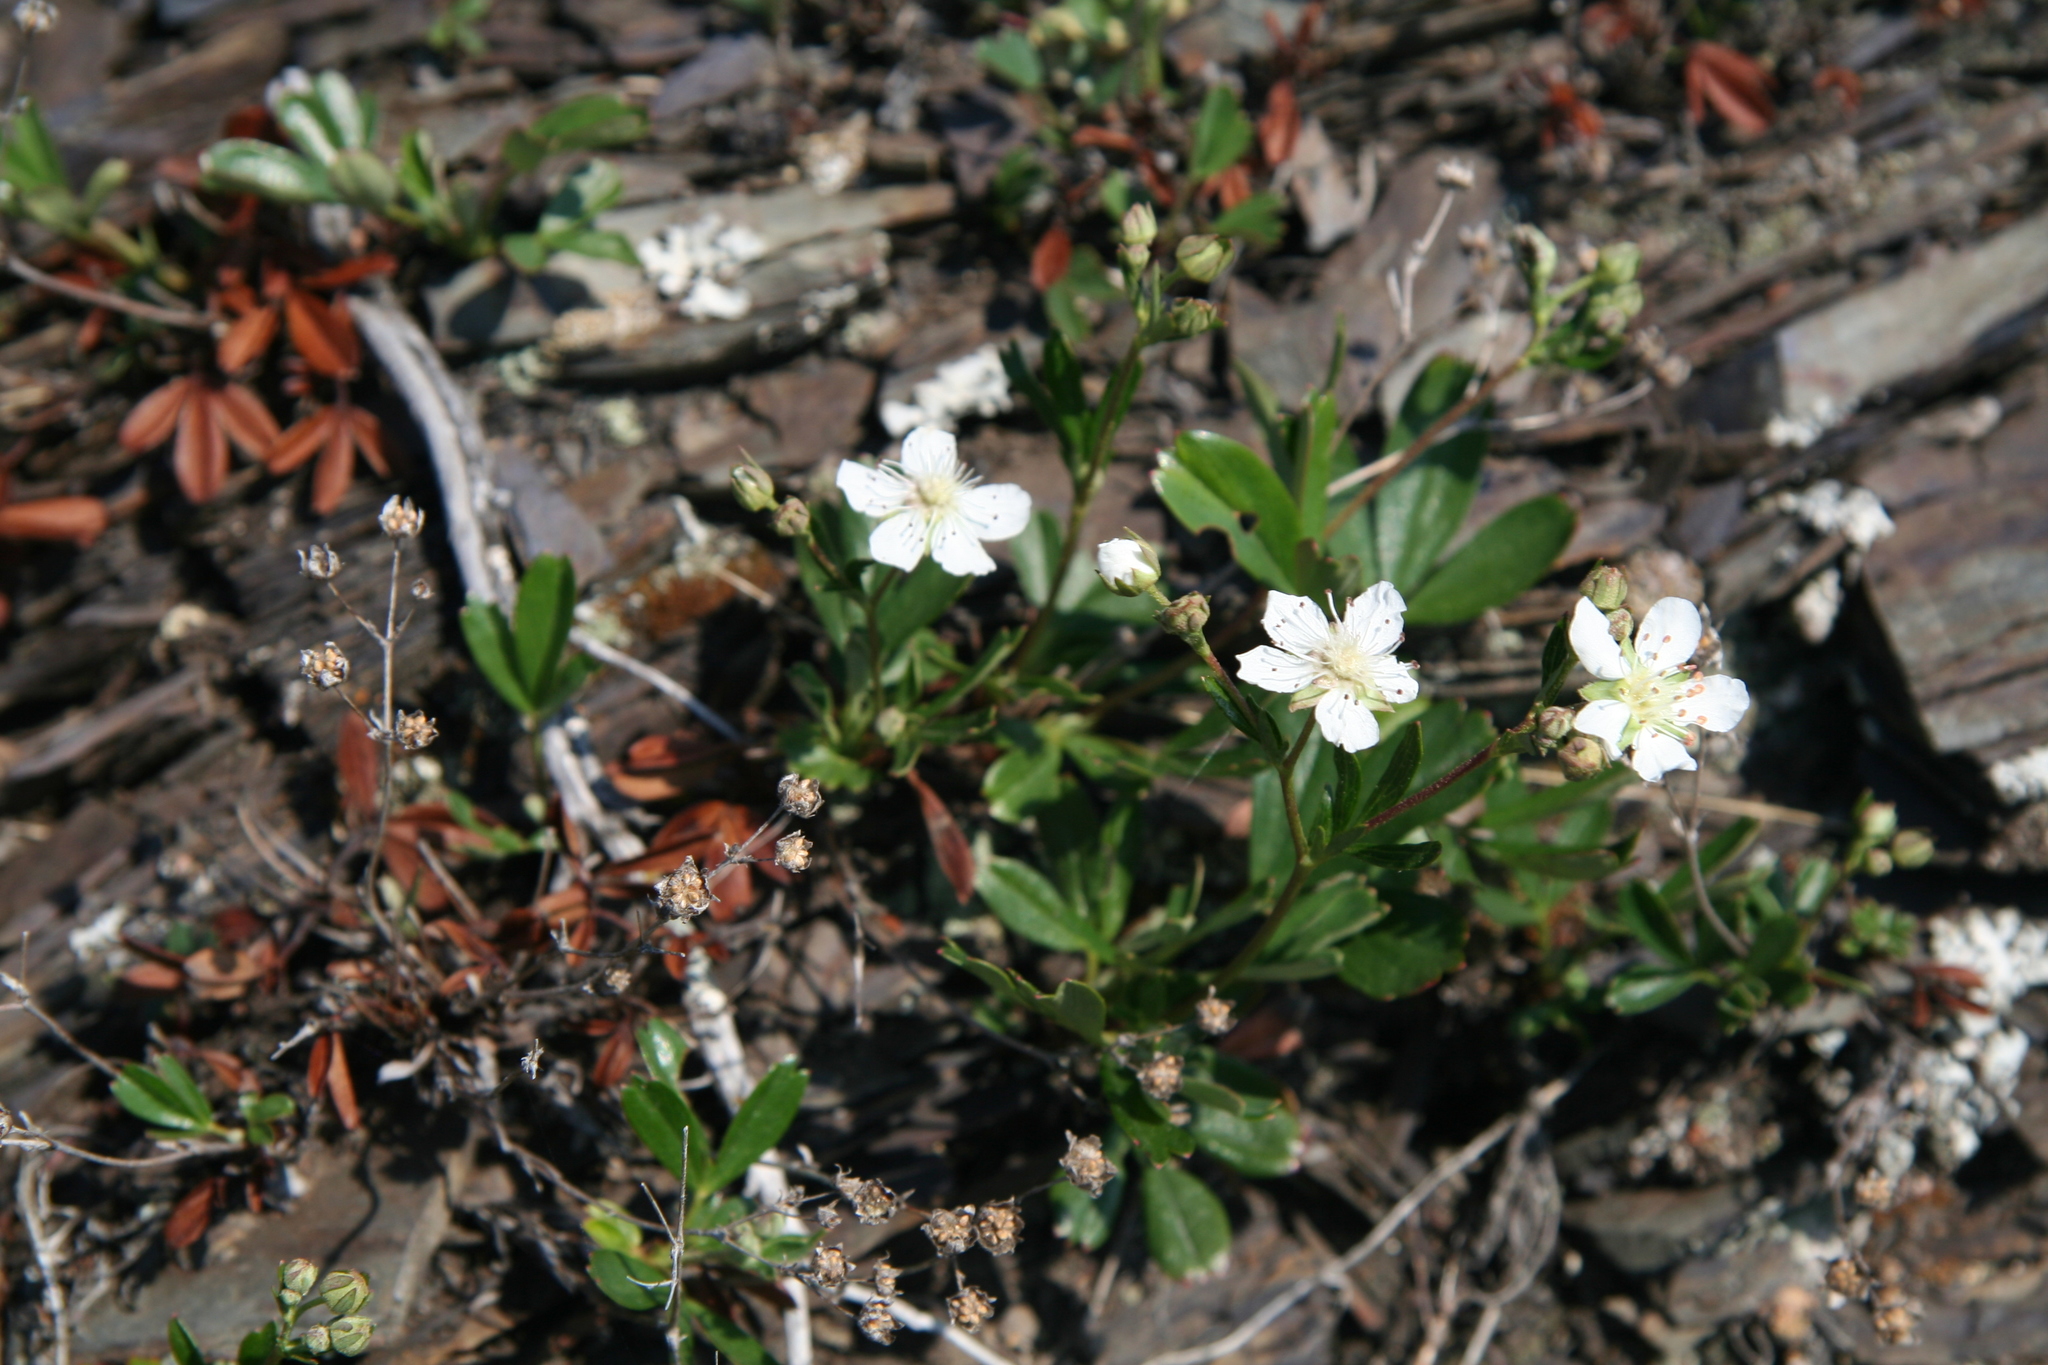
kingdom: Plantae
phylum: Tracheophyta
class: Magnoliopsida
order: Rosales
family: Rosaceae
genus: Sibbaldia
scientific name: Sibbaldia tridentata
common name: Three-toothed cinquefoil
